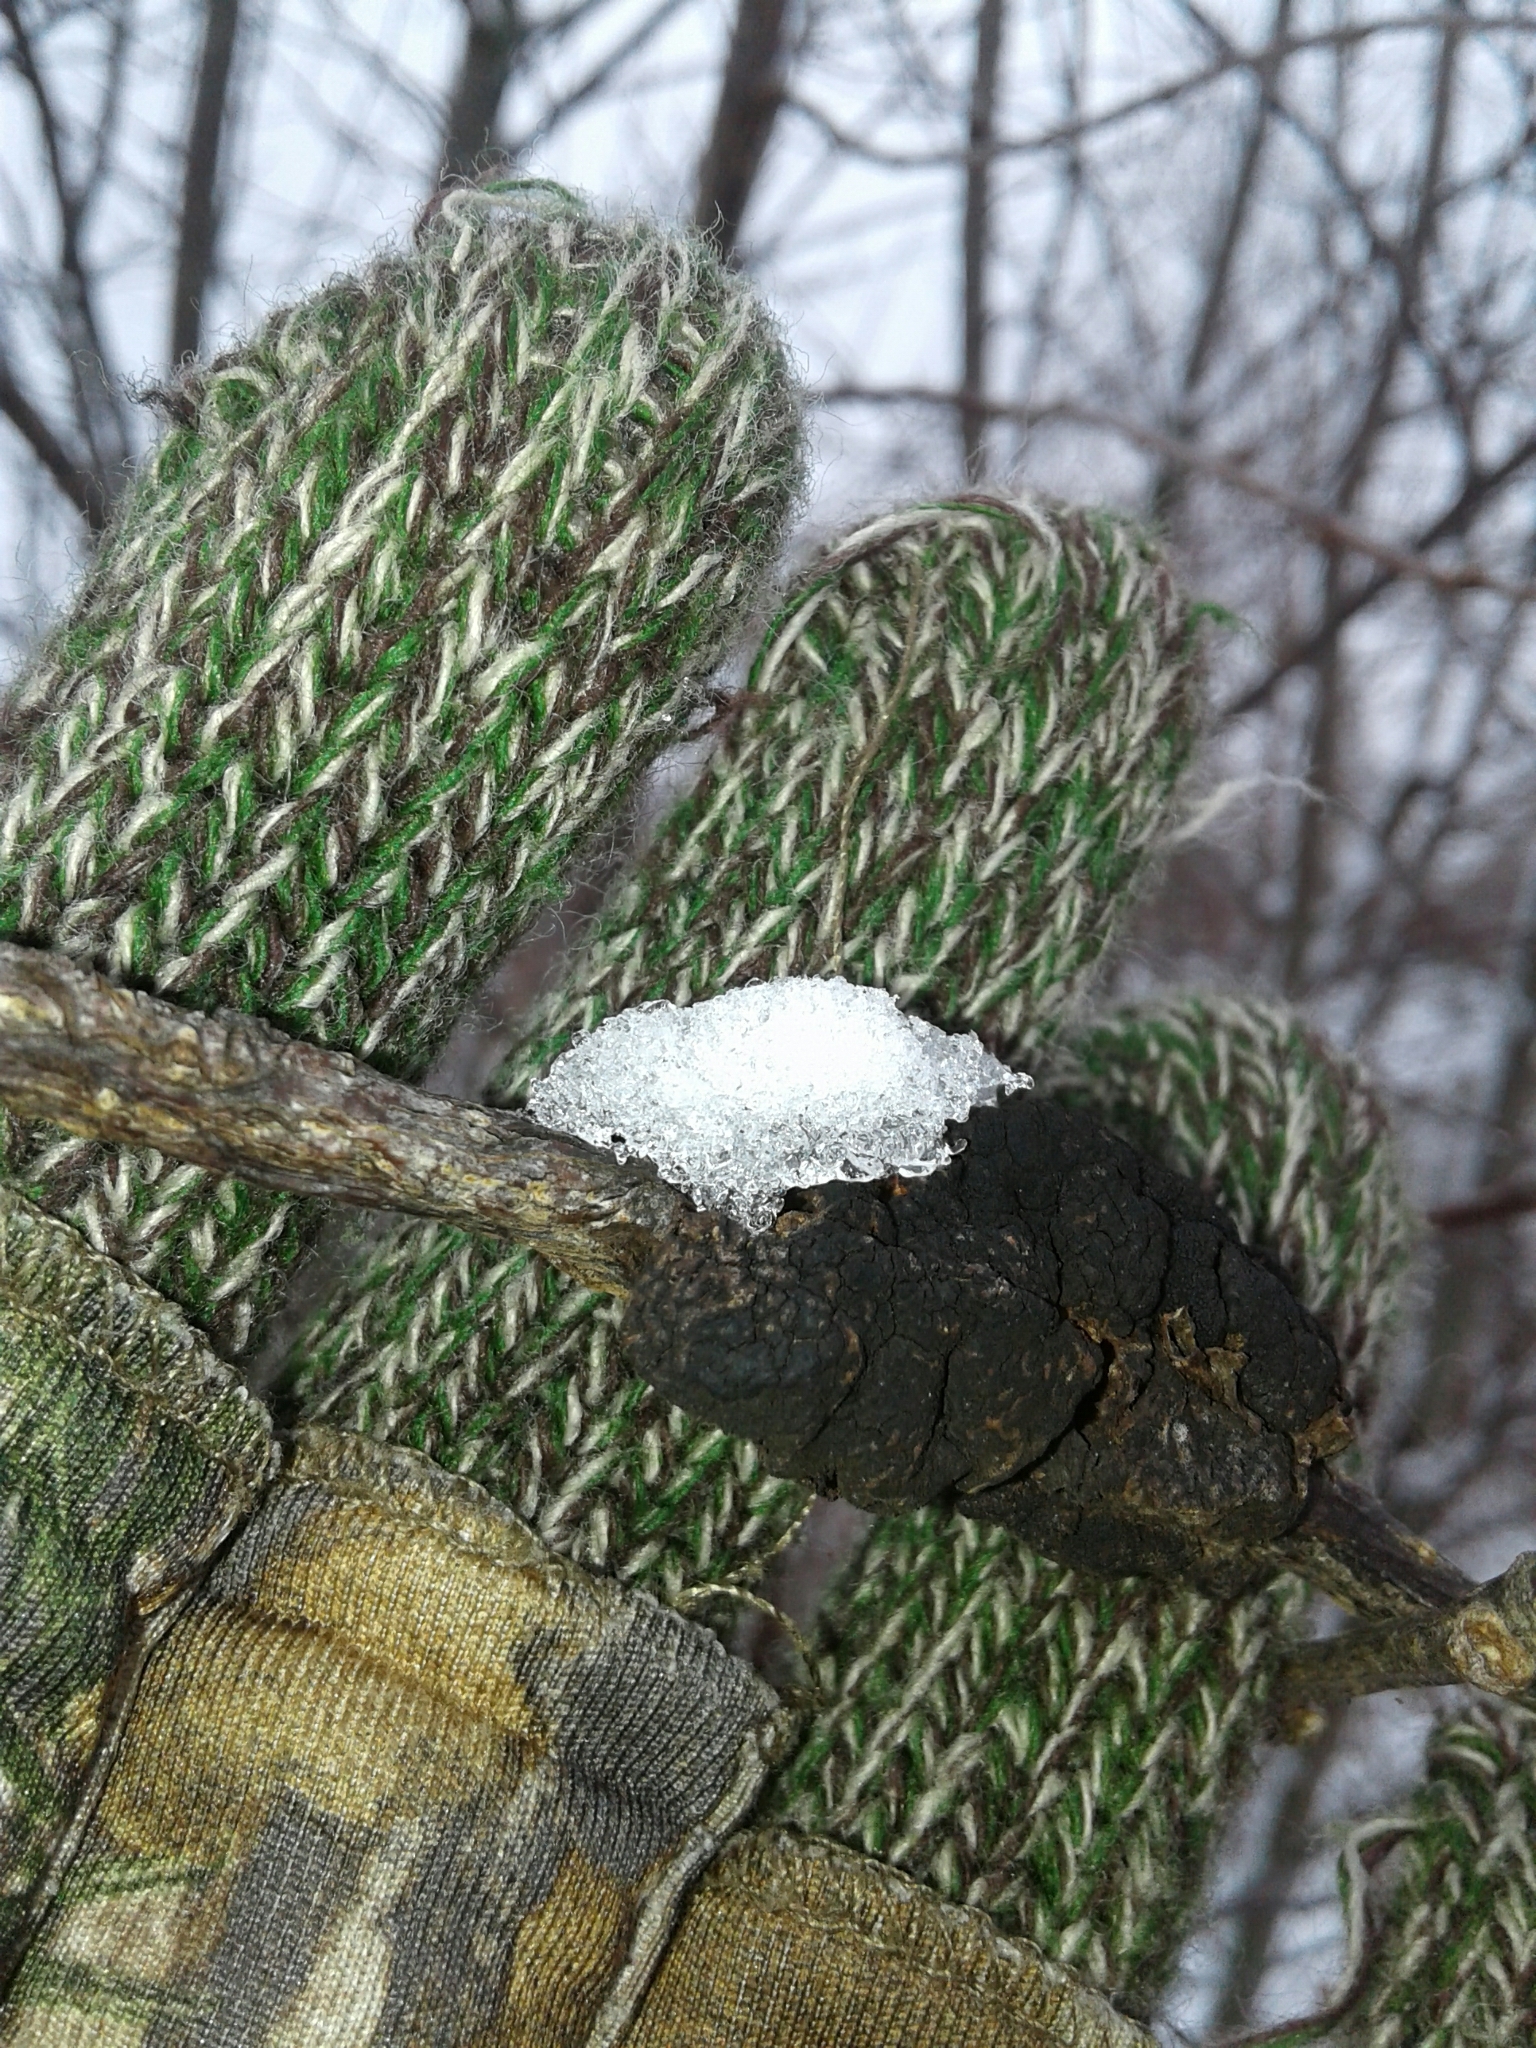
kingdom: Fungi
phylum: Ascomycota
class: Dothideomycetes
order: Venturiales
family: Venturiaceae
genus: Apiosporina
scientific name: Apiosporina morbosa
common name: Black knot
